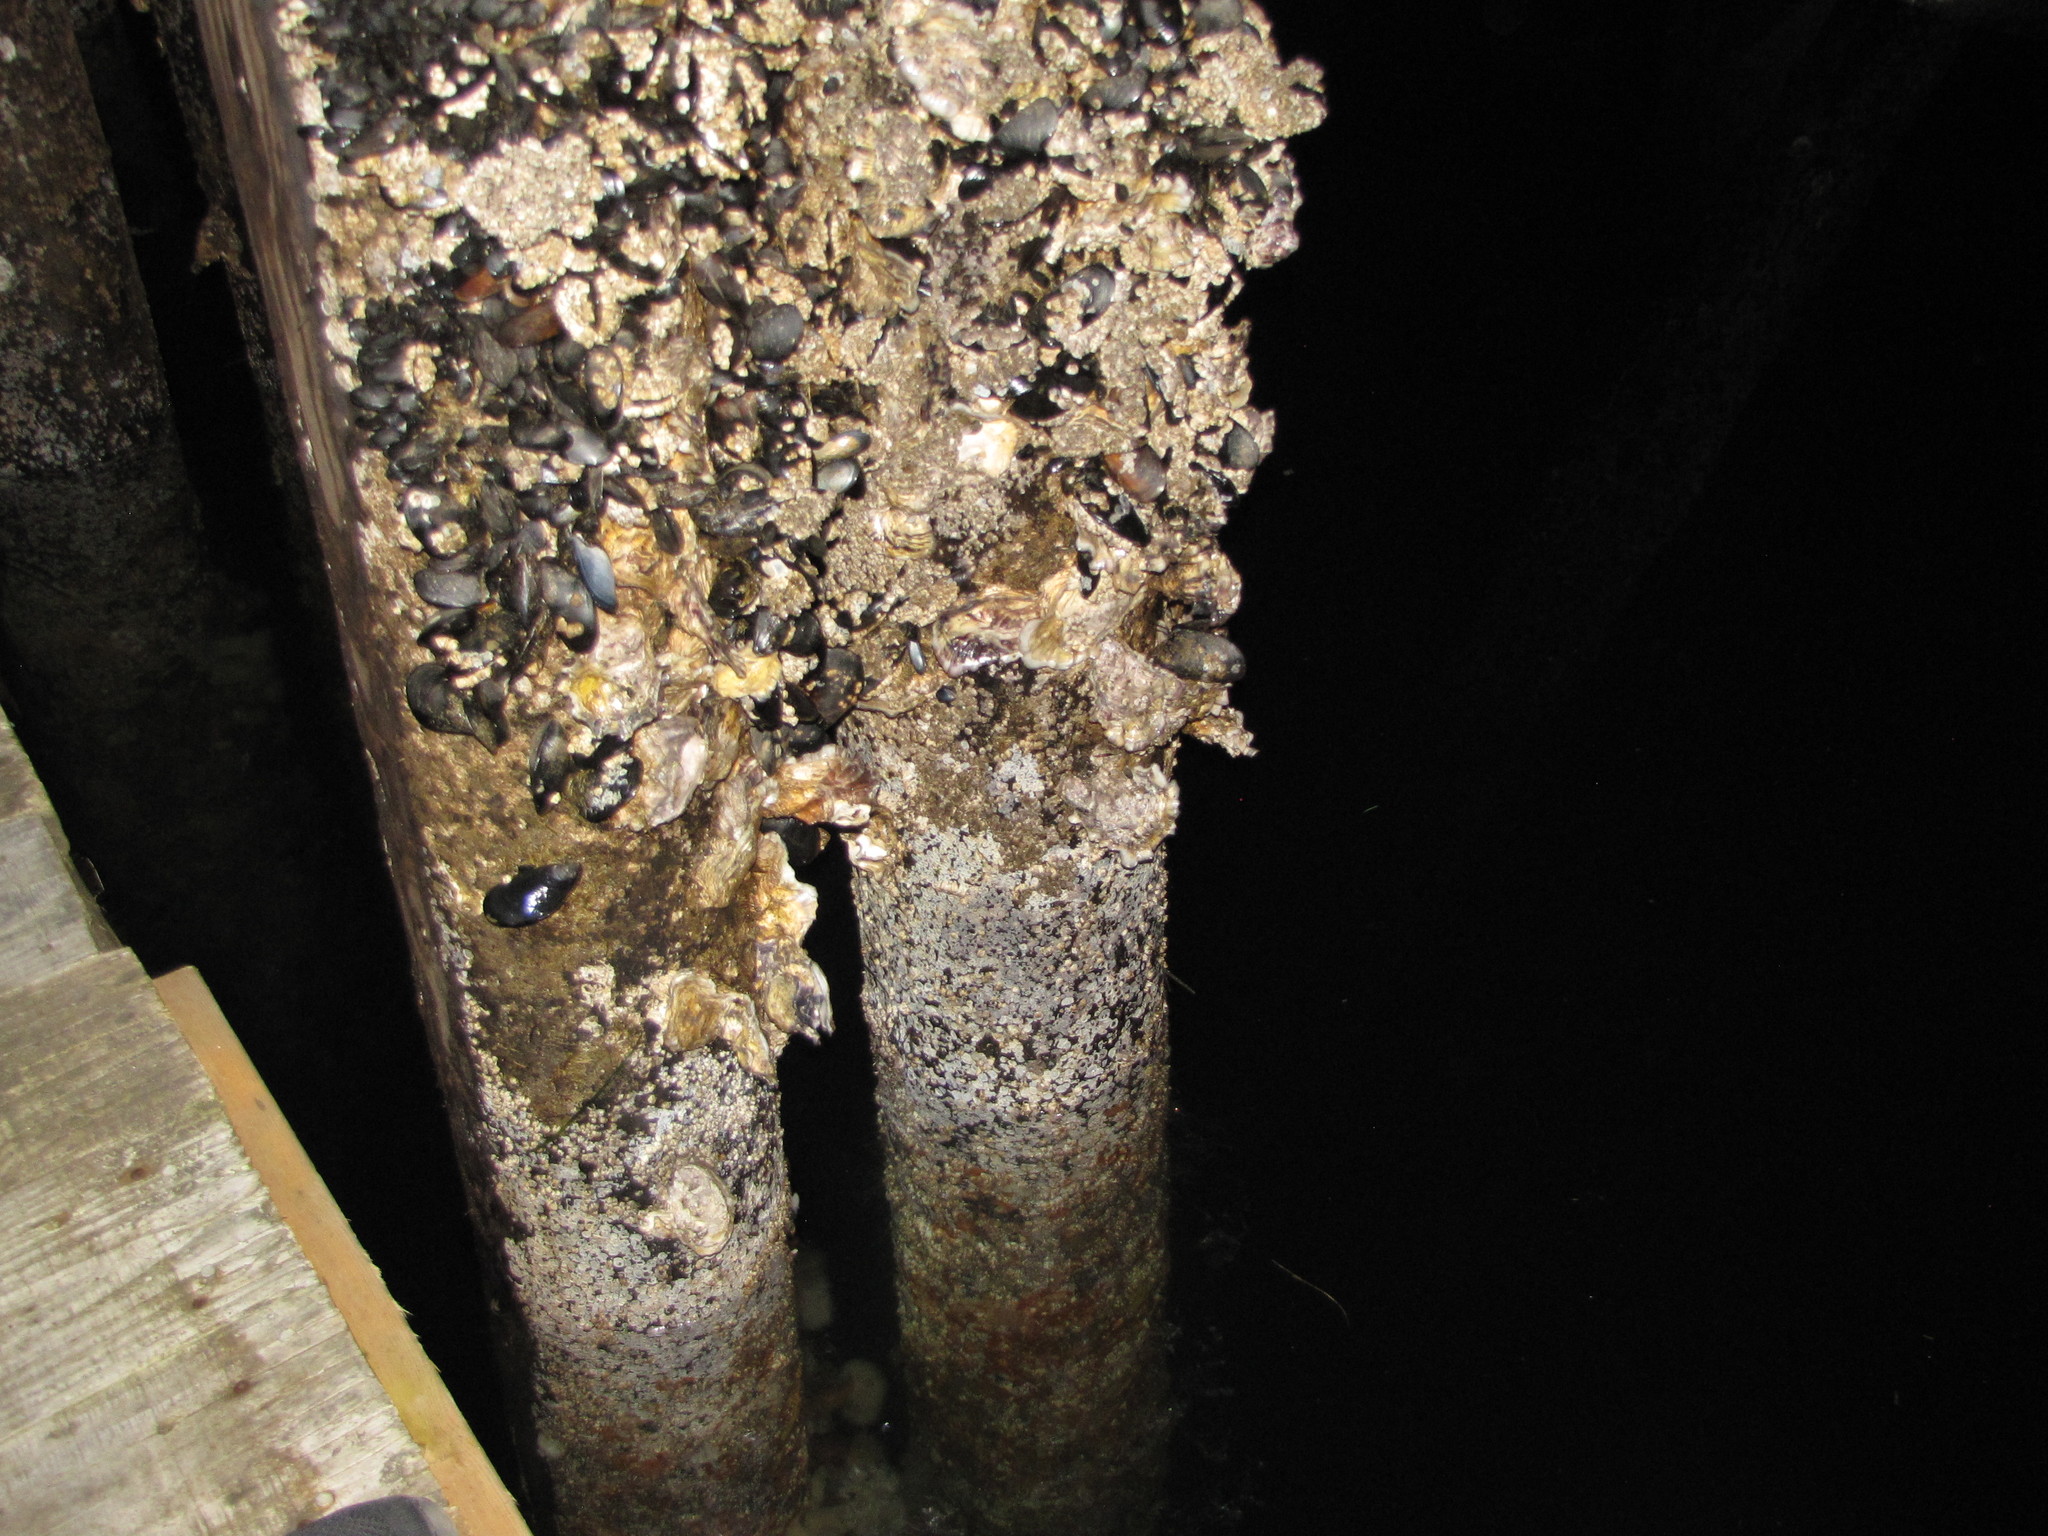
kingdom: Animalia
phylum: Mollusca
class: Bivalvia
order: Ostreida
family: Ostreidae
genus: Magallana
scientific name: Magallana gigas
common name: Pacific oyster
